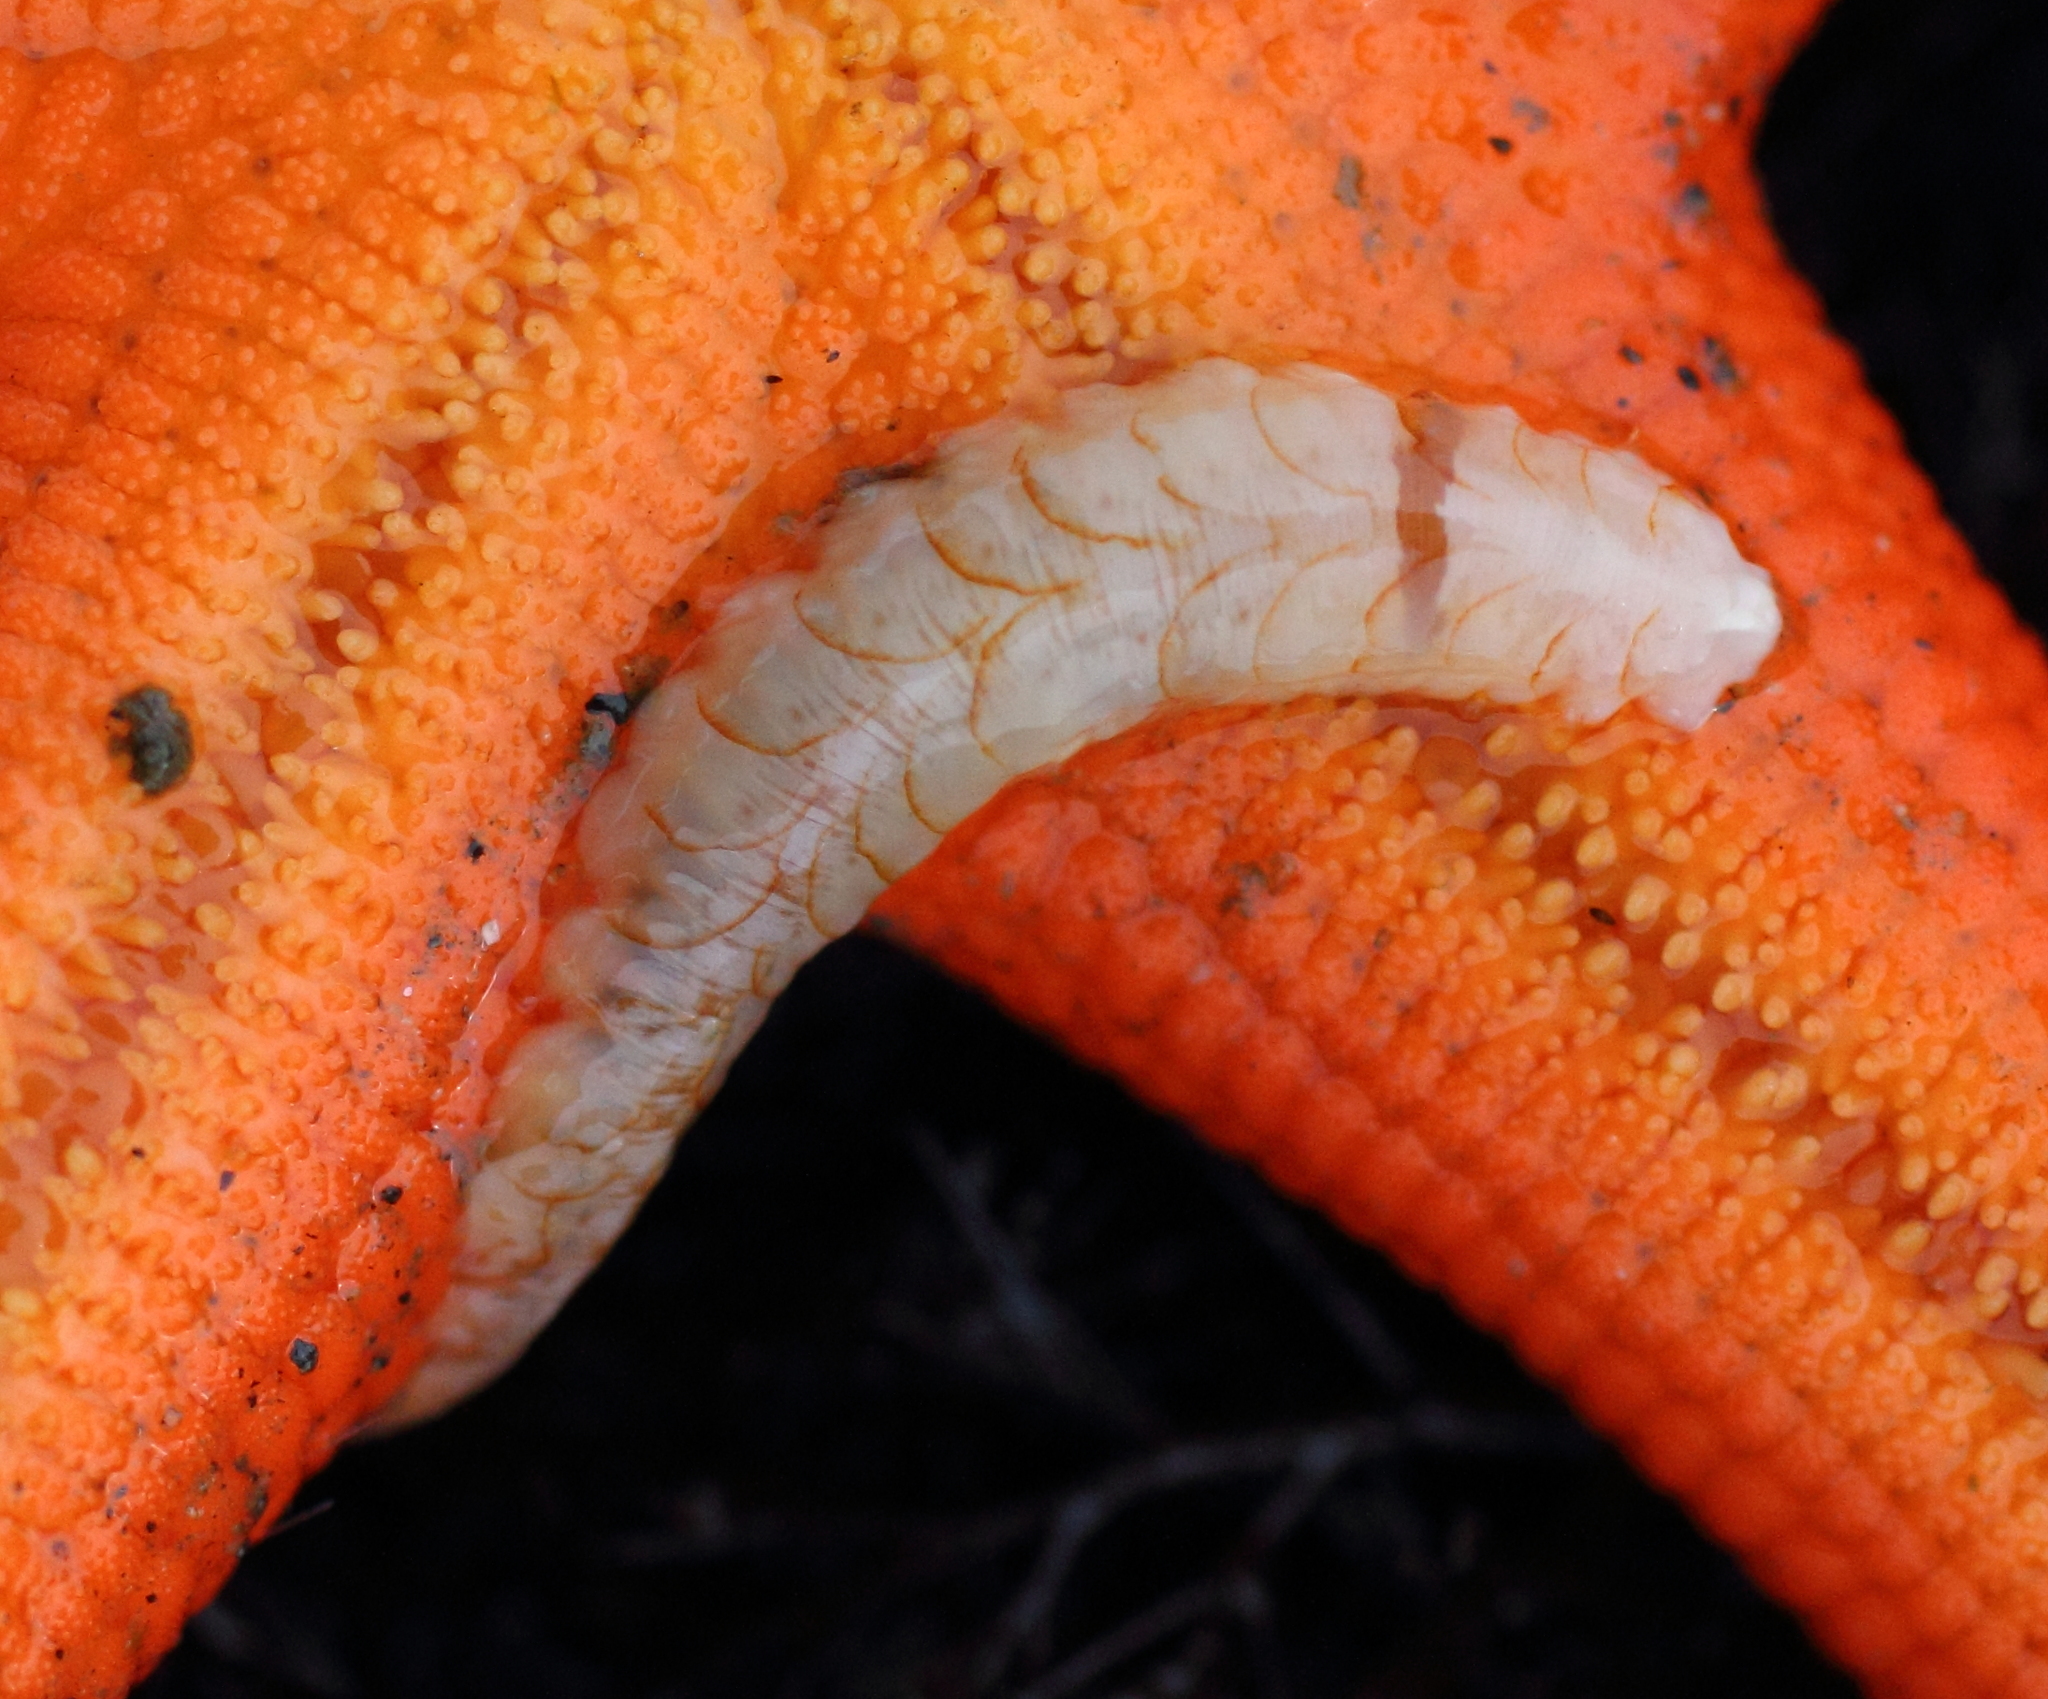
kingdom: Animalia
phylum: Annelida
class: Polychaeta
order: Phyllodocida
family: Polynoidae
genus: Arctonoe
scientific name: Arctonoe vittata
